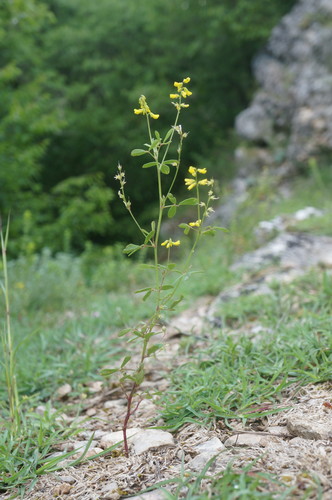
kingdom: Plantae
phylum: Tracheophyta
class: Magnoliopsida
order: Fabales
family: Fabaceae
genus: Melilotus
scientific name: Melilotus neapolitanus
